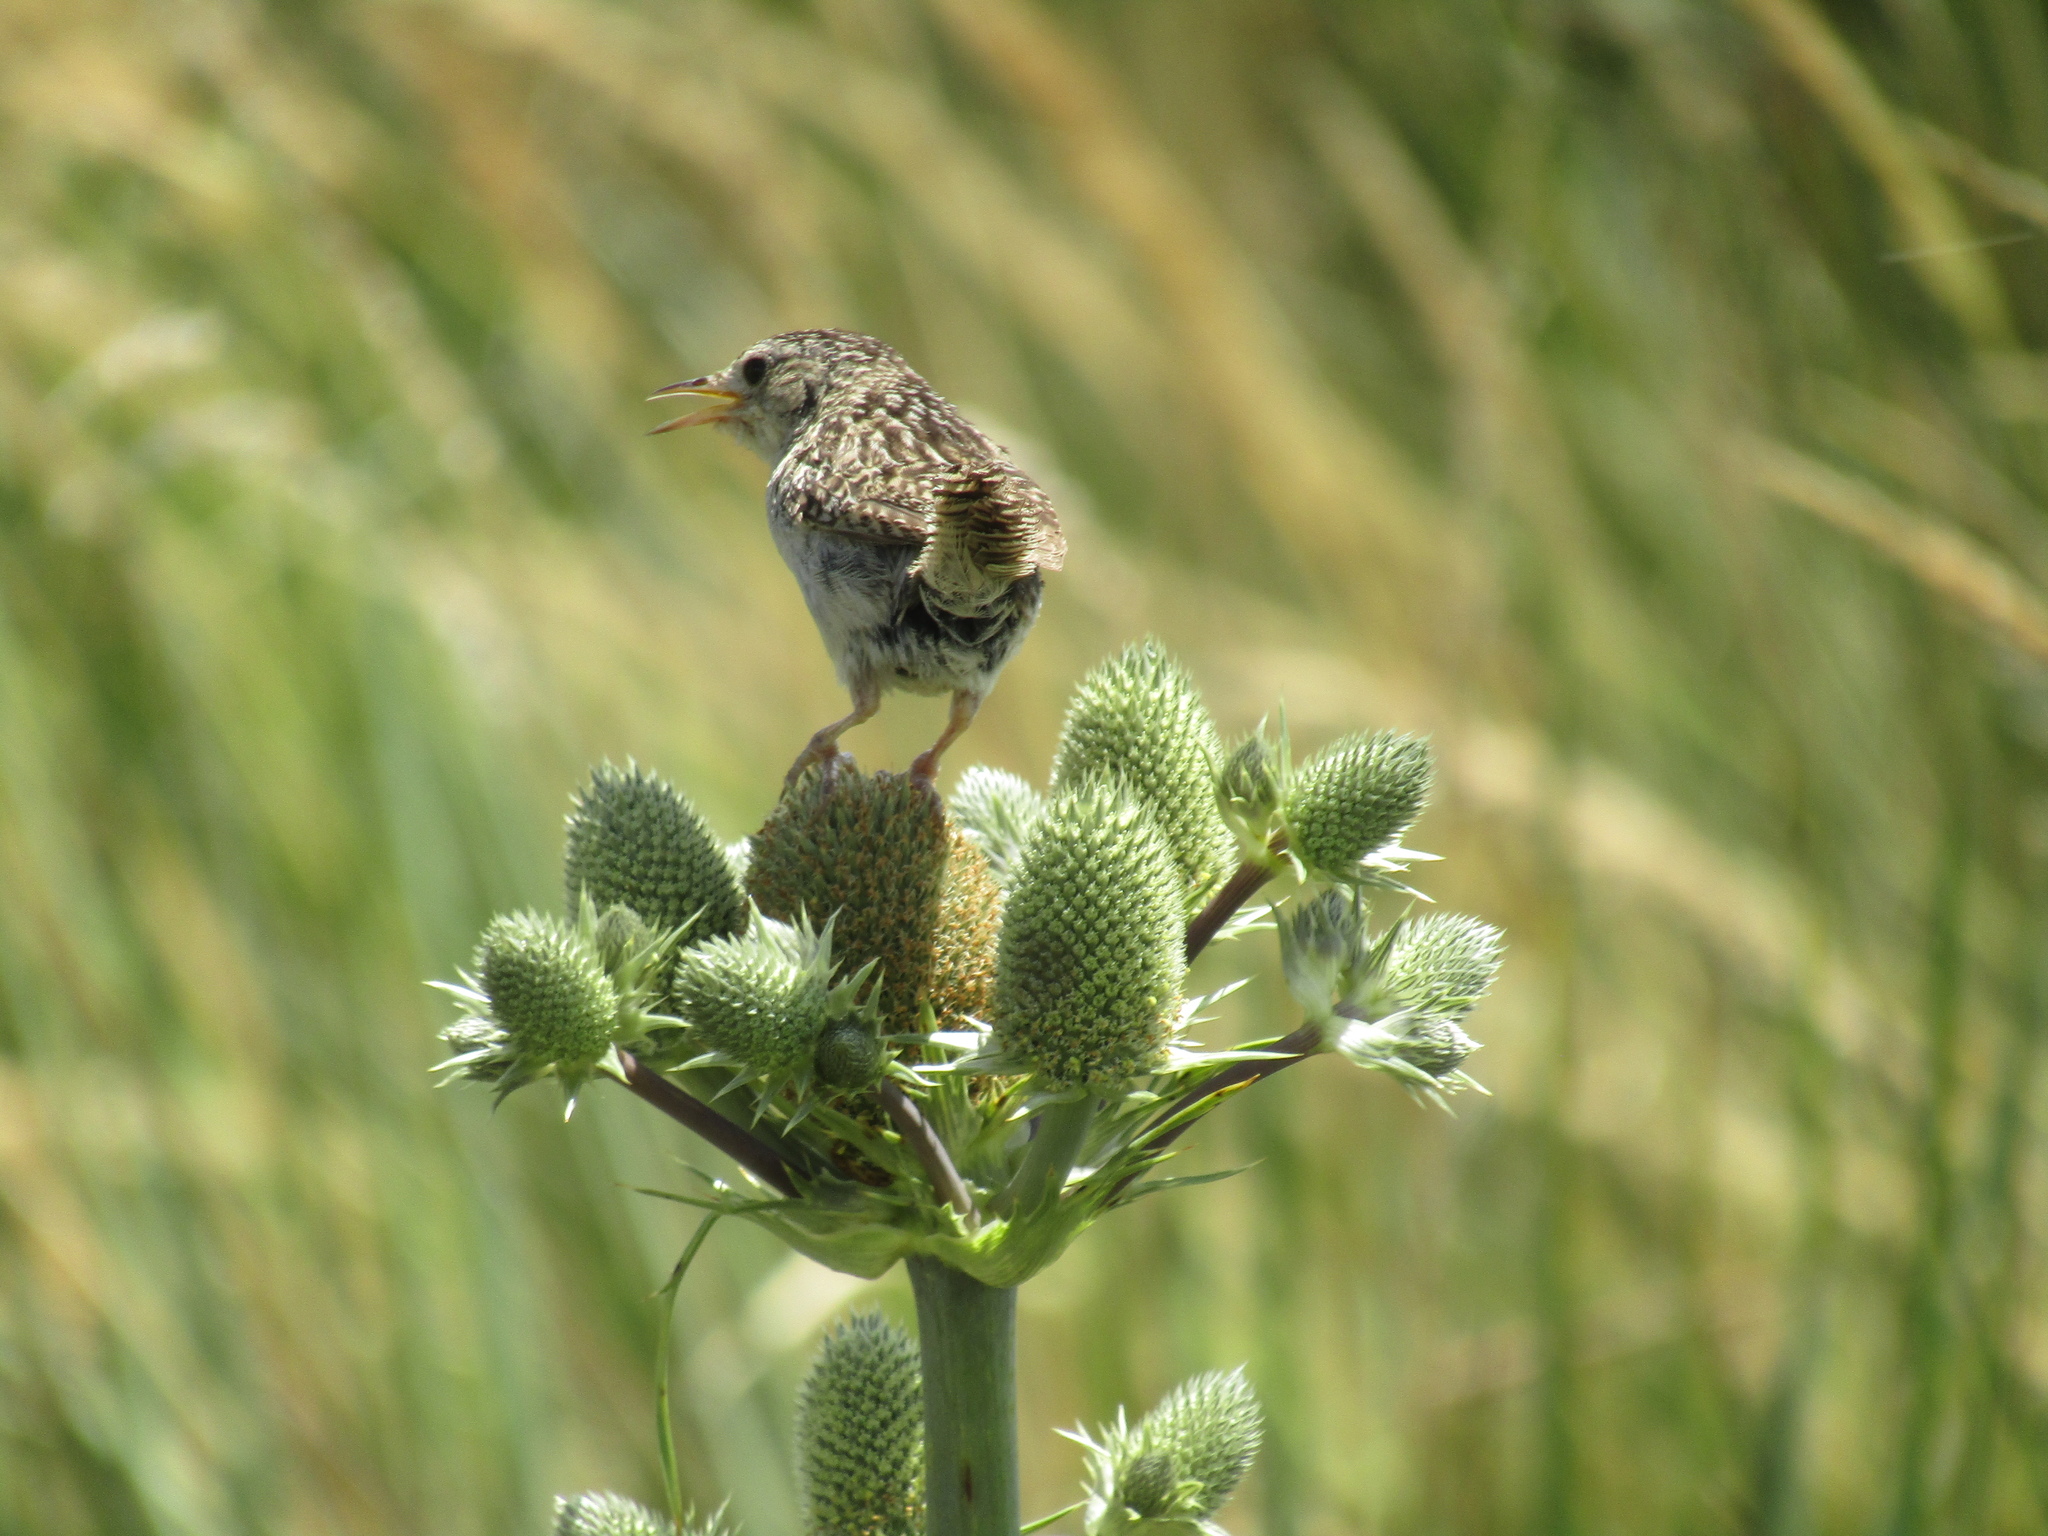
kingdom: Animalia
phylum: Chordata
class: Aves
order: Passeriformes
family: Troglodytidae
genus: Cistothorus
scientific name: Cistothorus platensis
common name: Sedge wren
